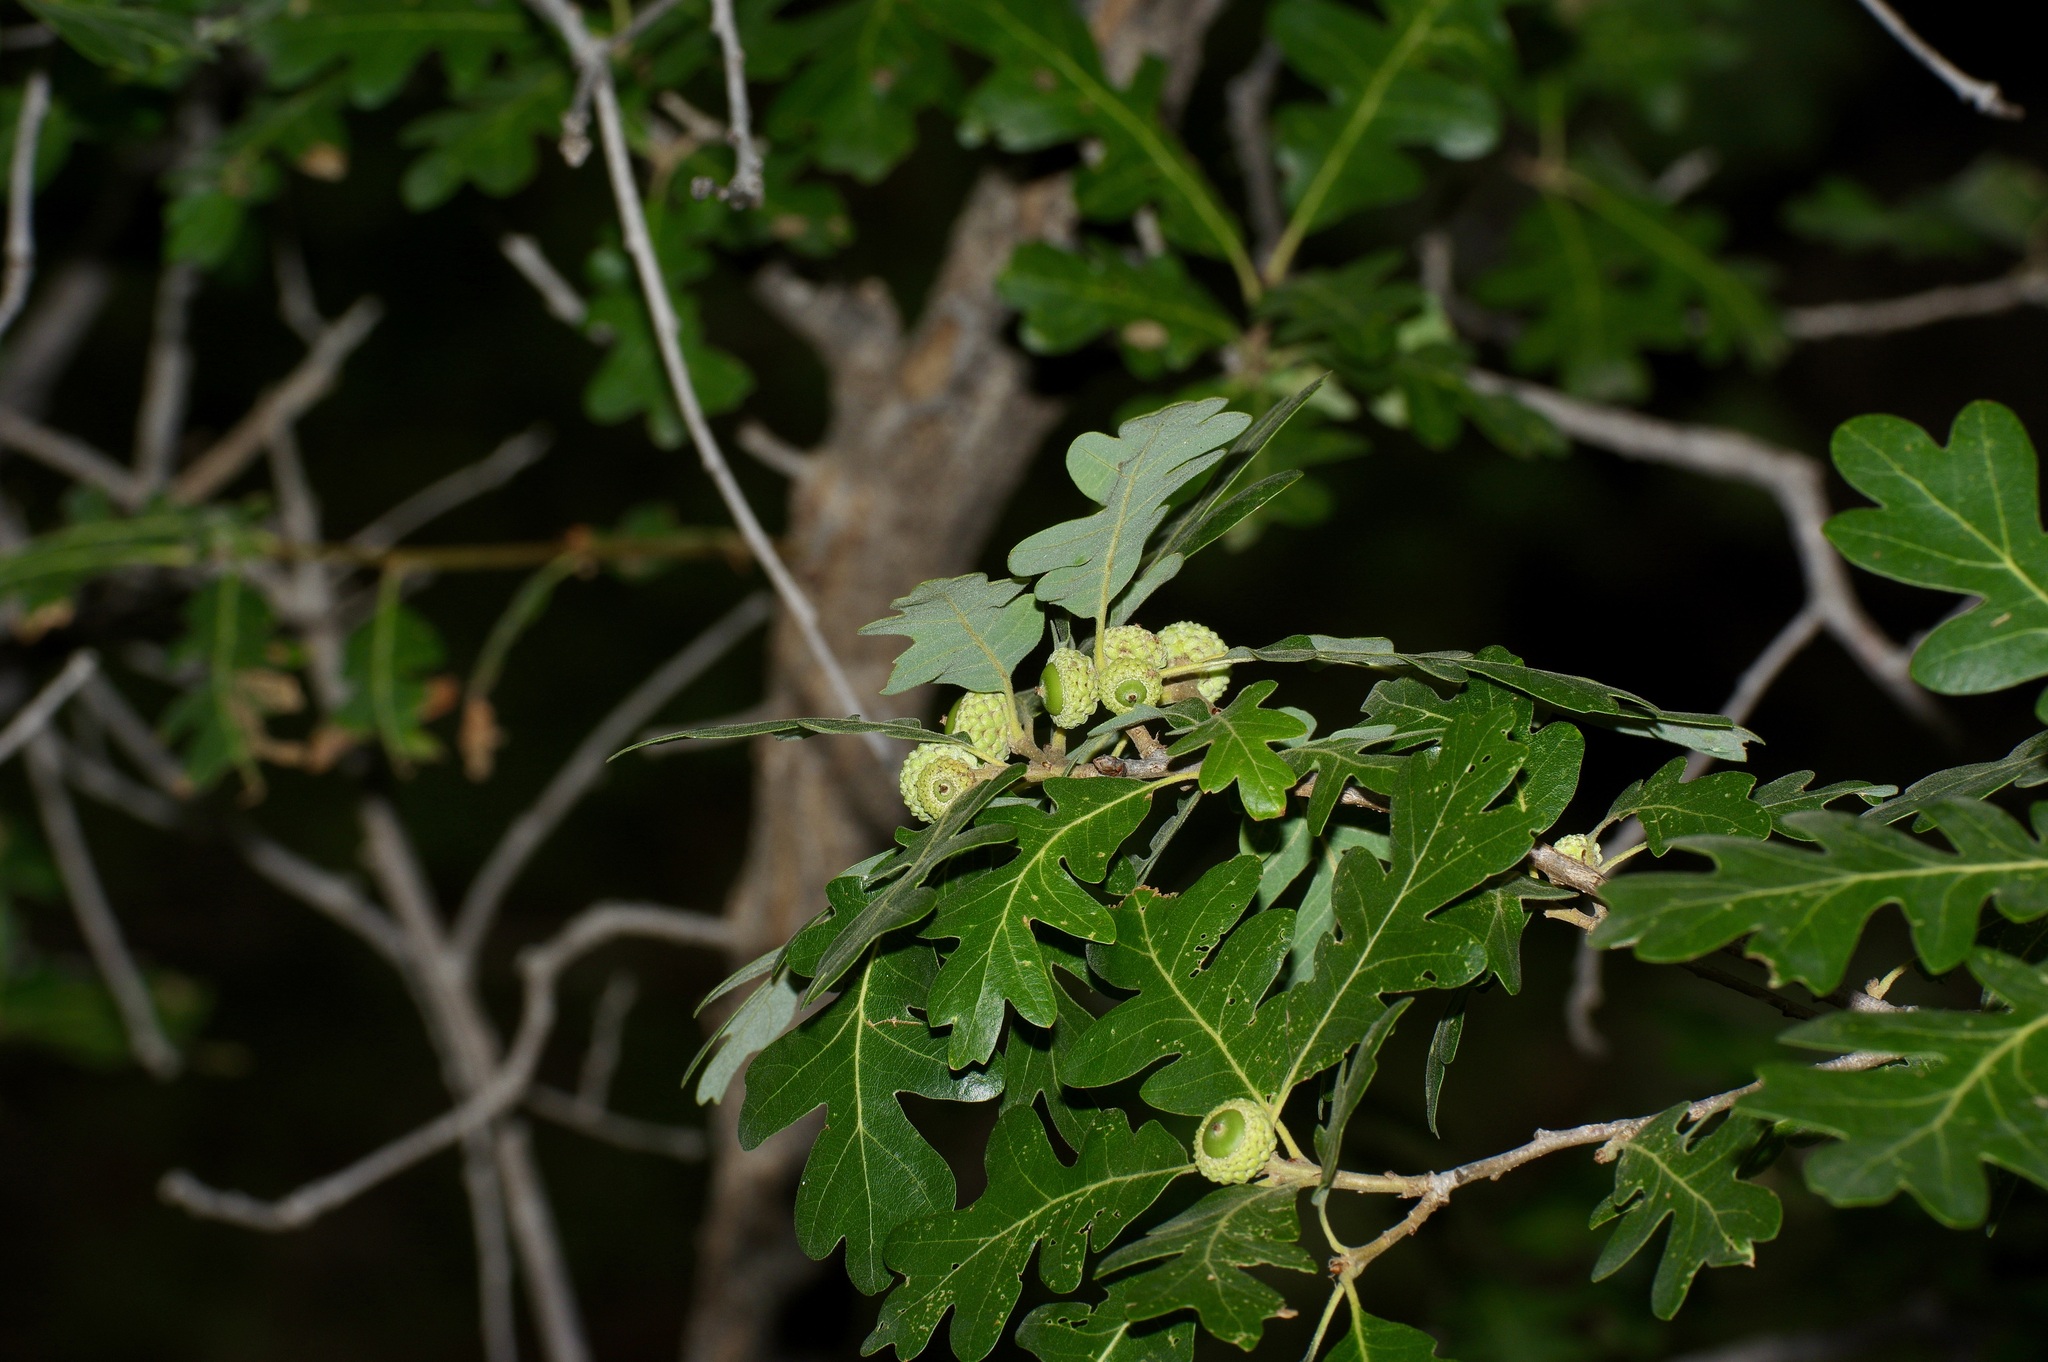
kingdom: Plantae
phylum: Tracheophyta
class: Magnoliopsida
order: Fagales
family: Fagaceae
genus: Quercus
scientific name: Quercus gambelii
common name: Gambel oak
